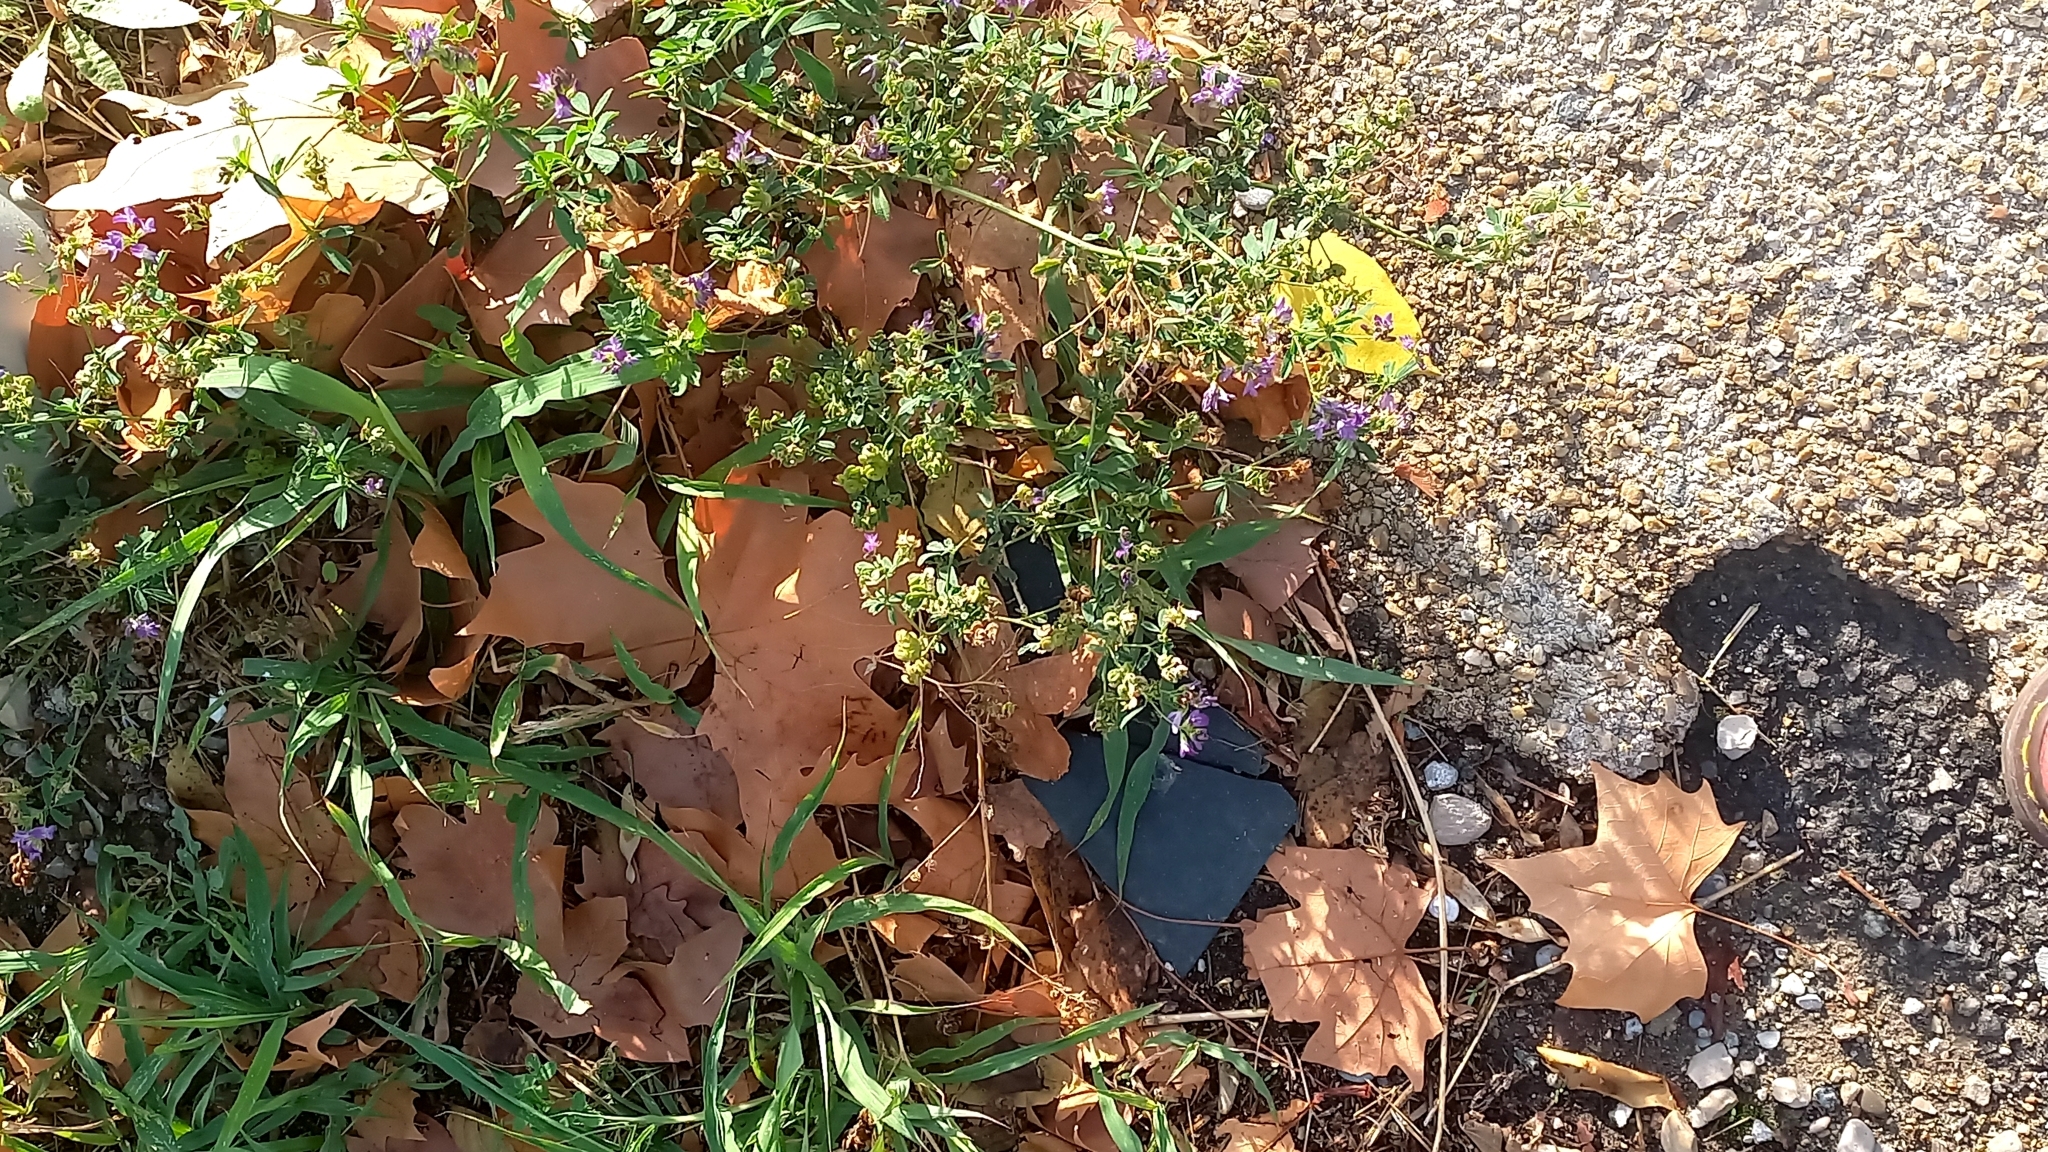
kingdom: Plantae
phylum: Tracheophyta
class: Magnoliopsida
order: Fabales
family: Fabaceae
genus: Medicago
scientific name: Medicago sativa
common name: Alfalfa
